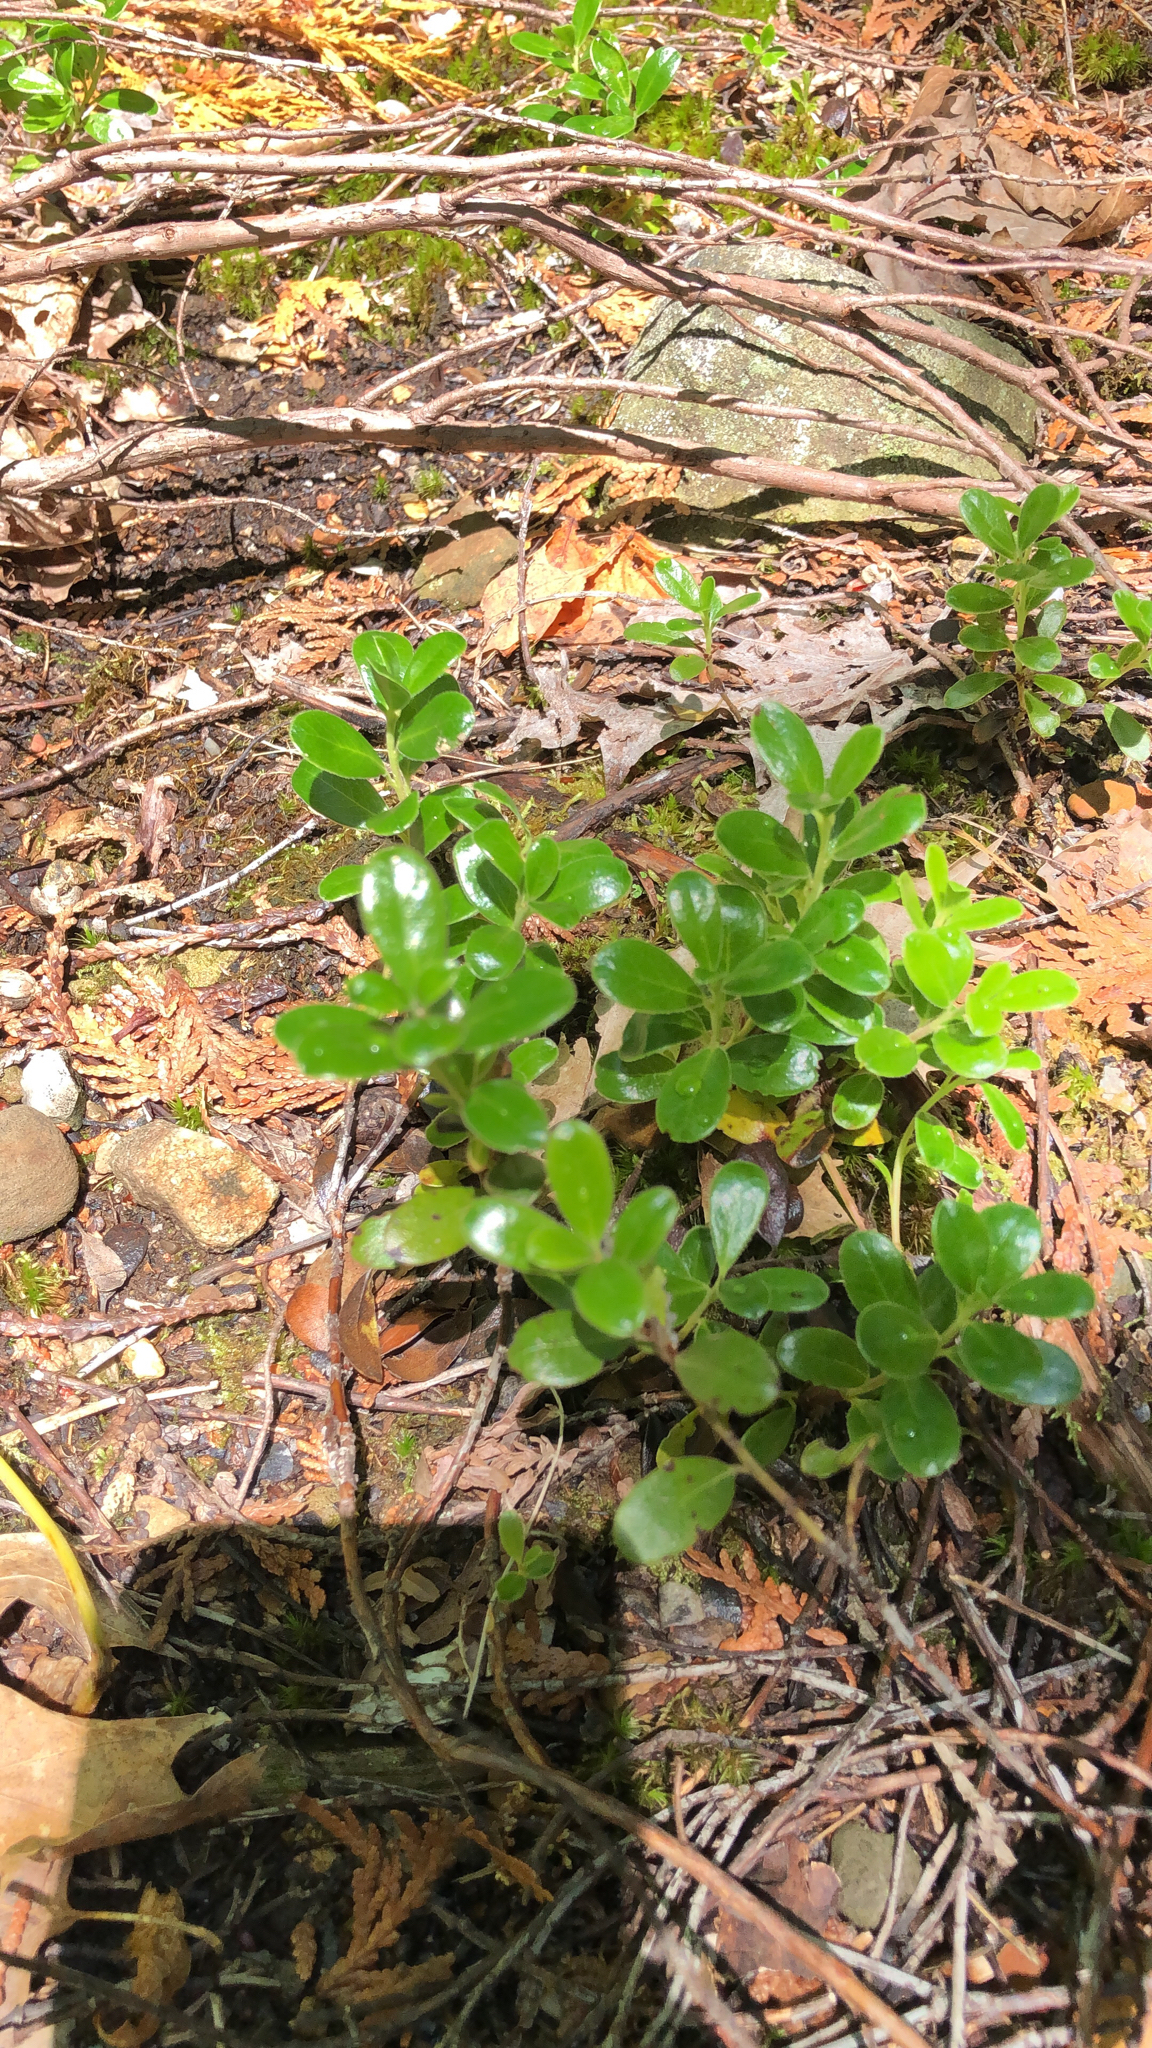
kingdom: Plantae
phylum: Tracheophyta
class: Magnoliopsida
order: Ericales
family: Ericaceae
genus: Arctostaphylos
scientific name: Arctostaphylos uva-ursi
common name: Bearberry
